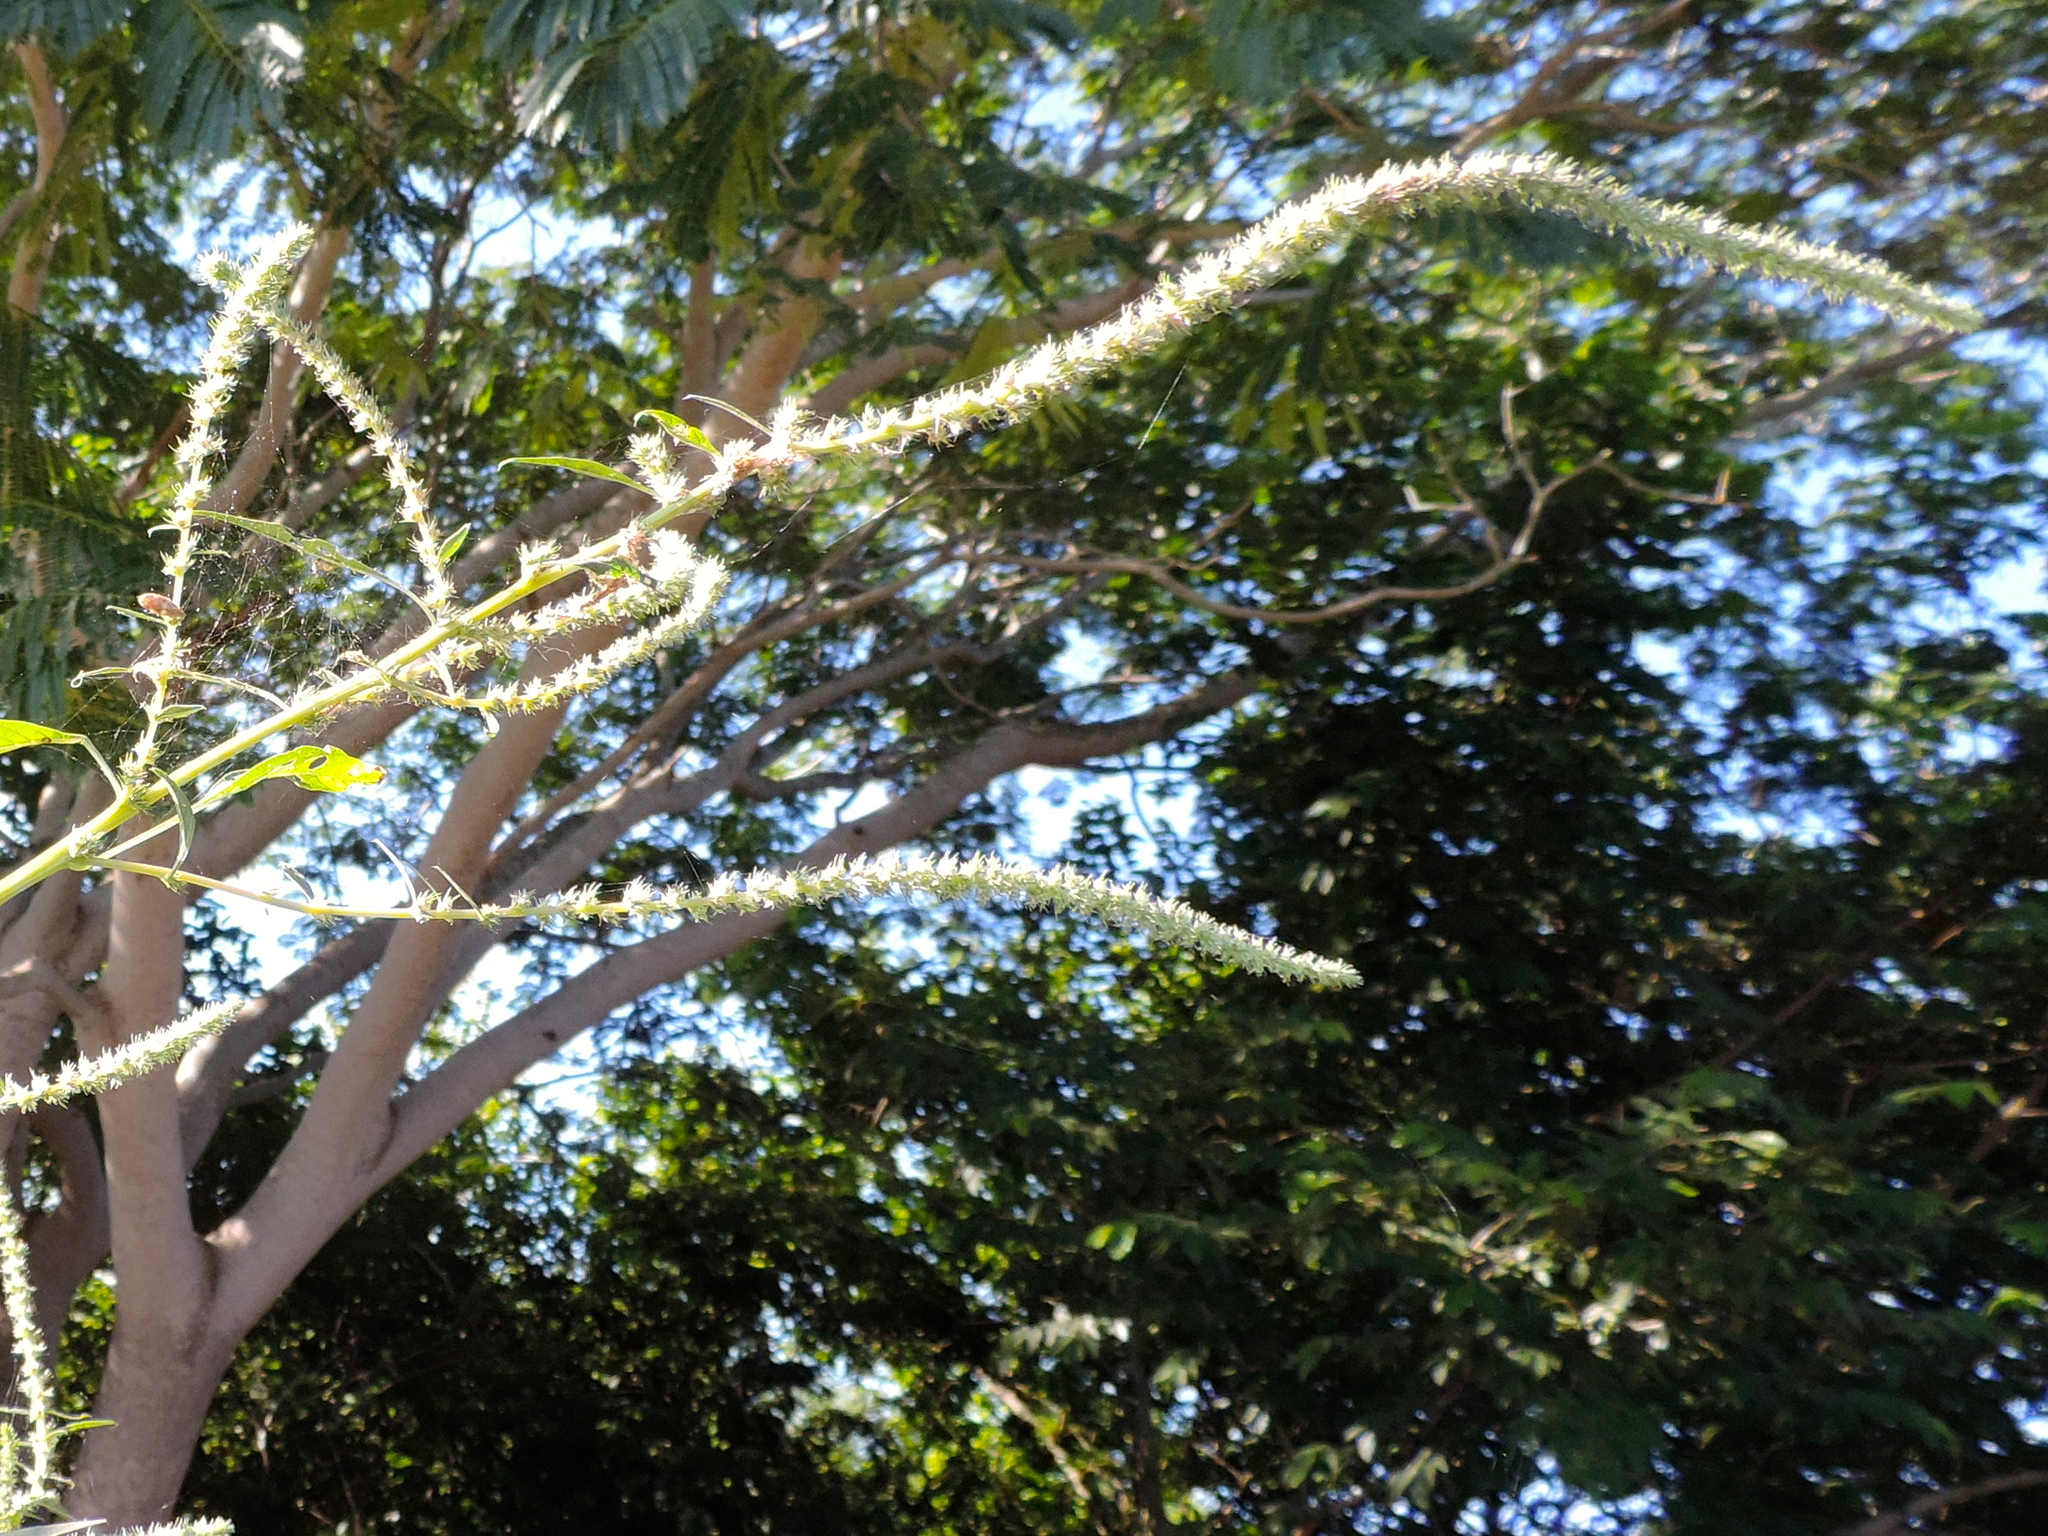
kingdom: Plantae
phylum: Tracheophyta
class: Magnoliopsida
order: Caryophyllales
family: Amaranthaceae
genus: Amaranthus
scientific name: Amaranthus palmeri
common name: Dioecious amaranth
